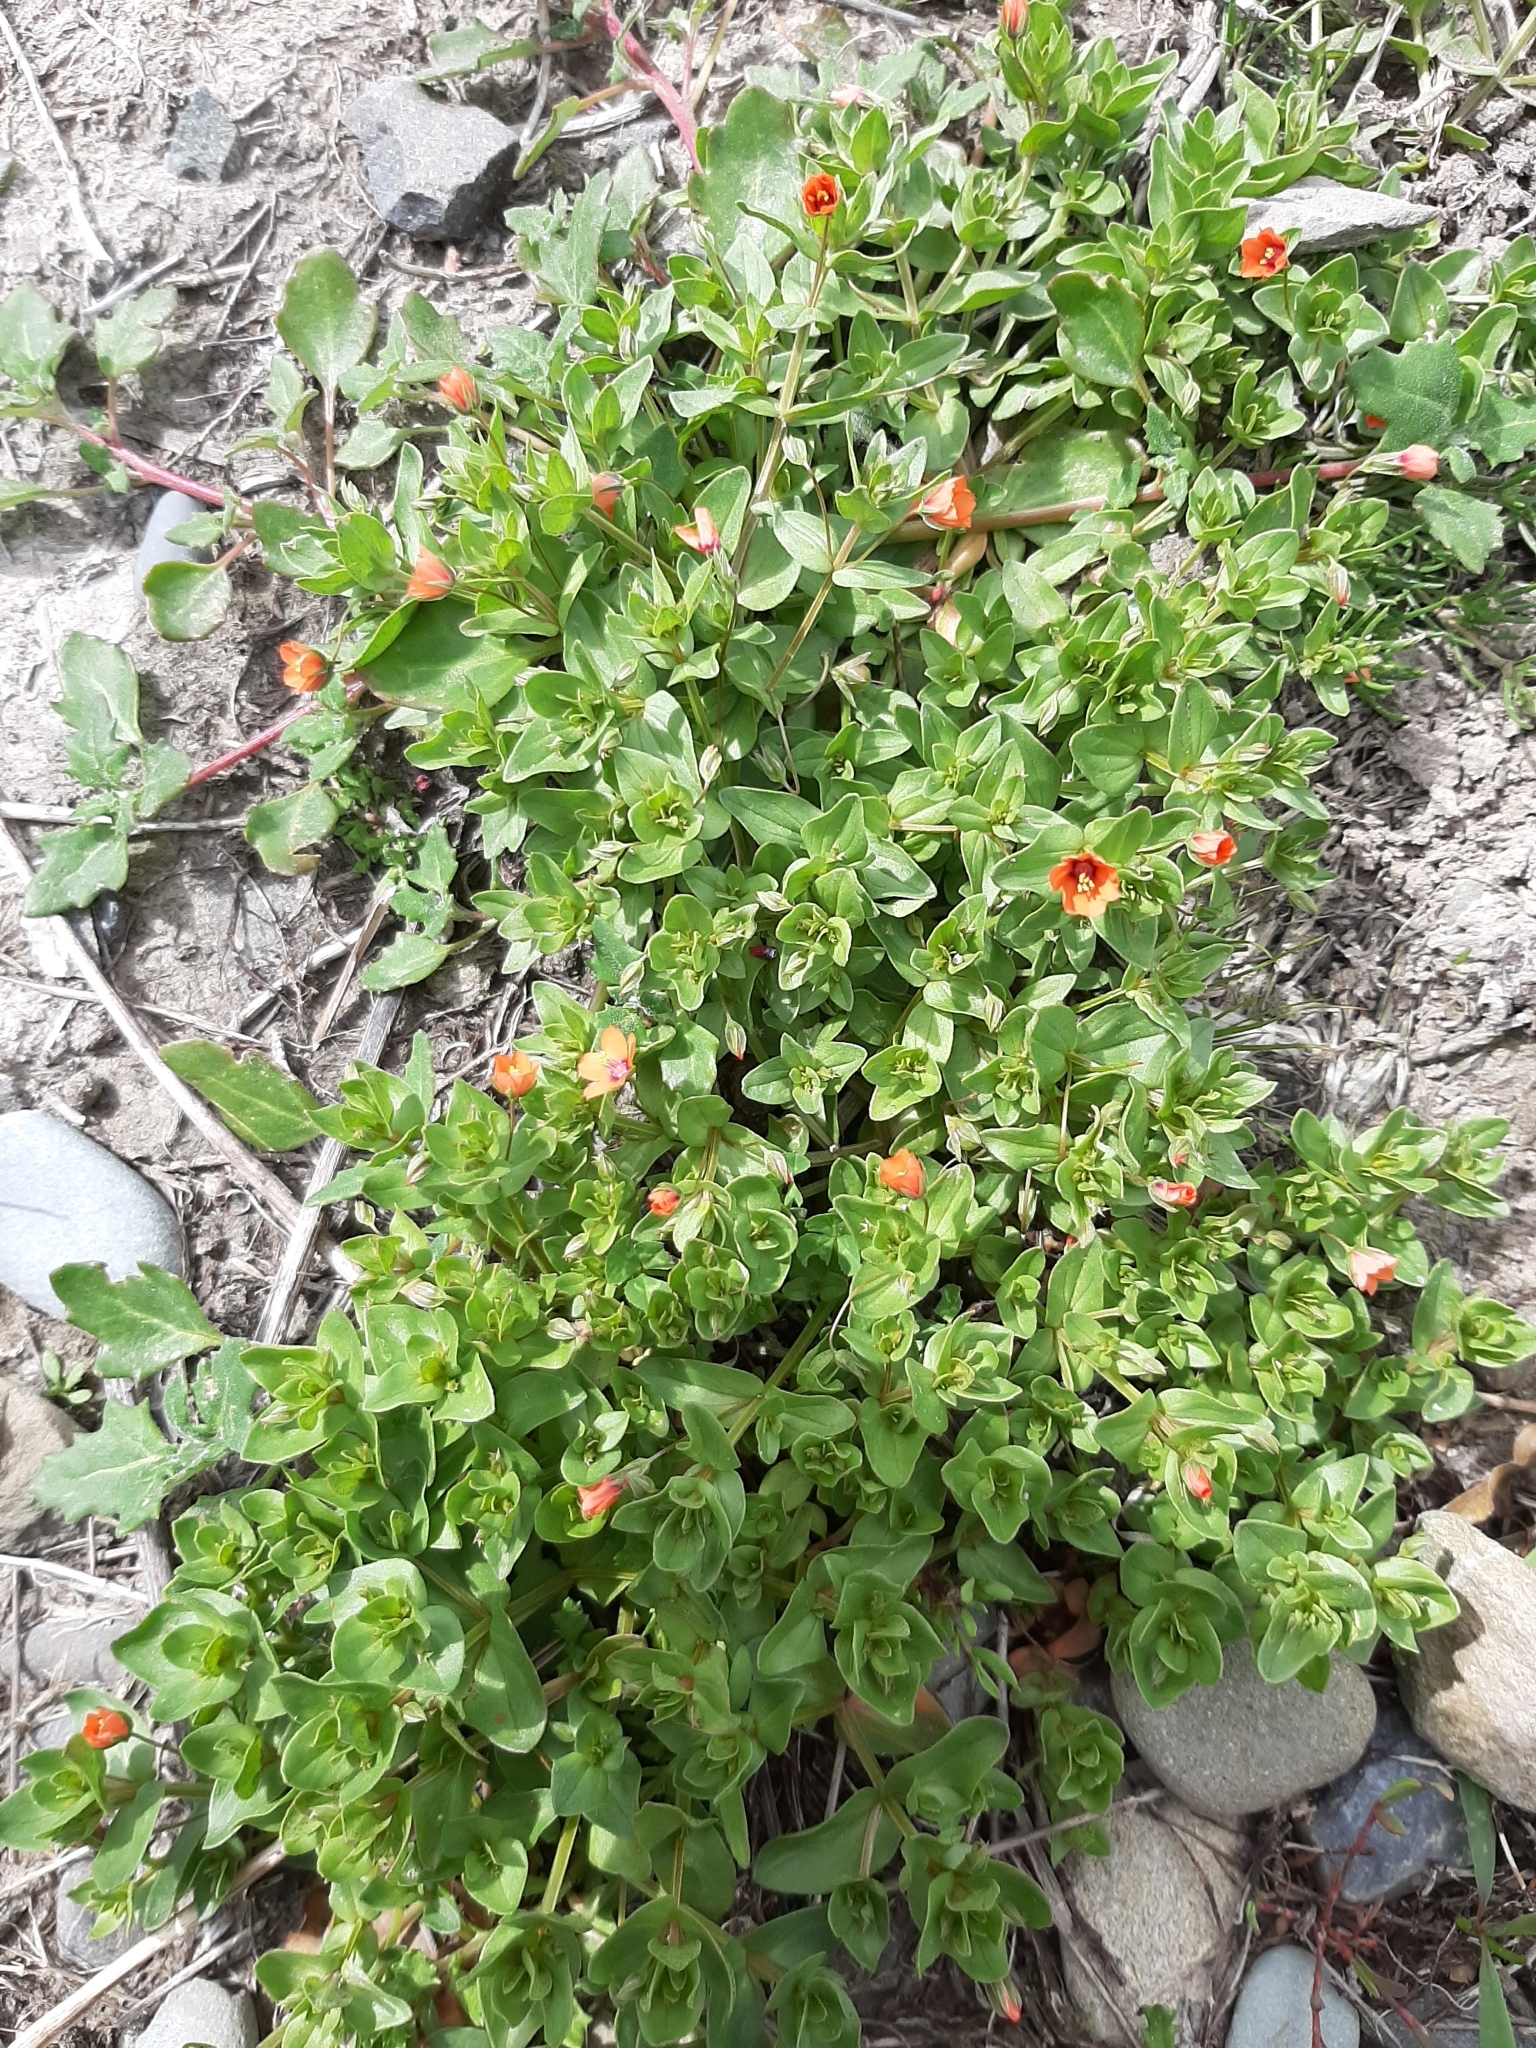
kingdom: Plantae
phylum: Tracheophyta
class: Magnoliopsida
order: Ericales
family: Primulaceae
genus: Lysimachia
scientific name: Lysimachia arvensis
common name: Scarlet pimpernel
